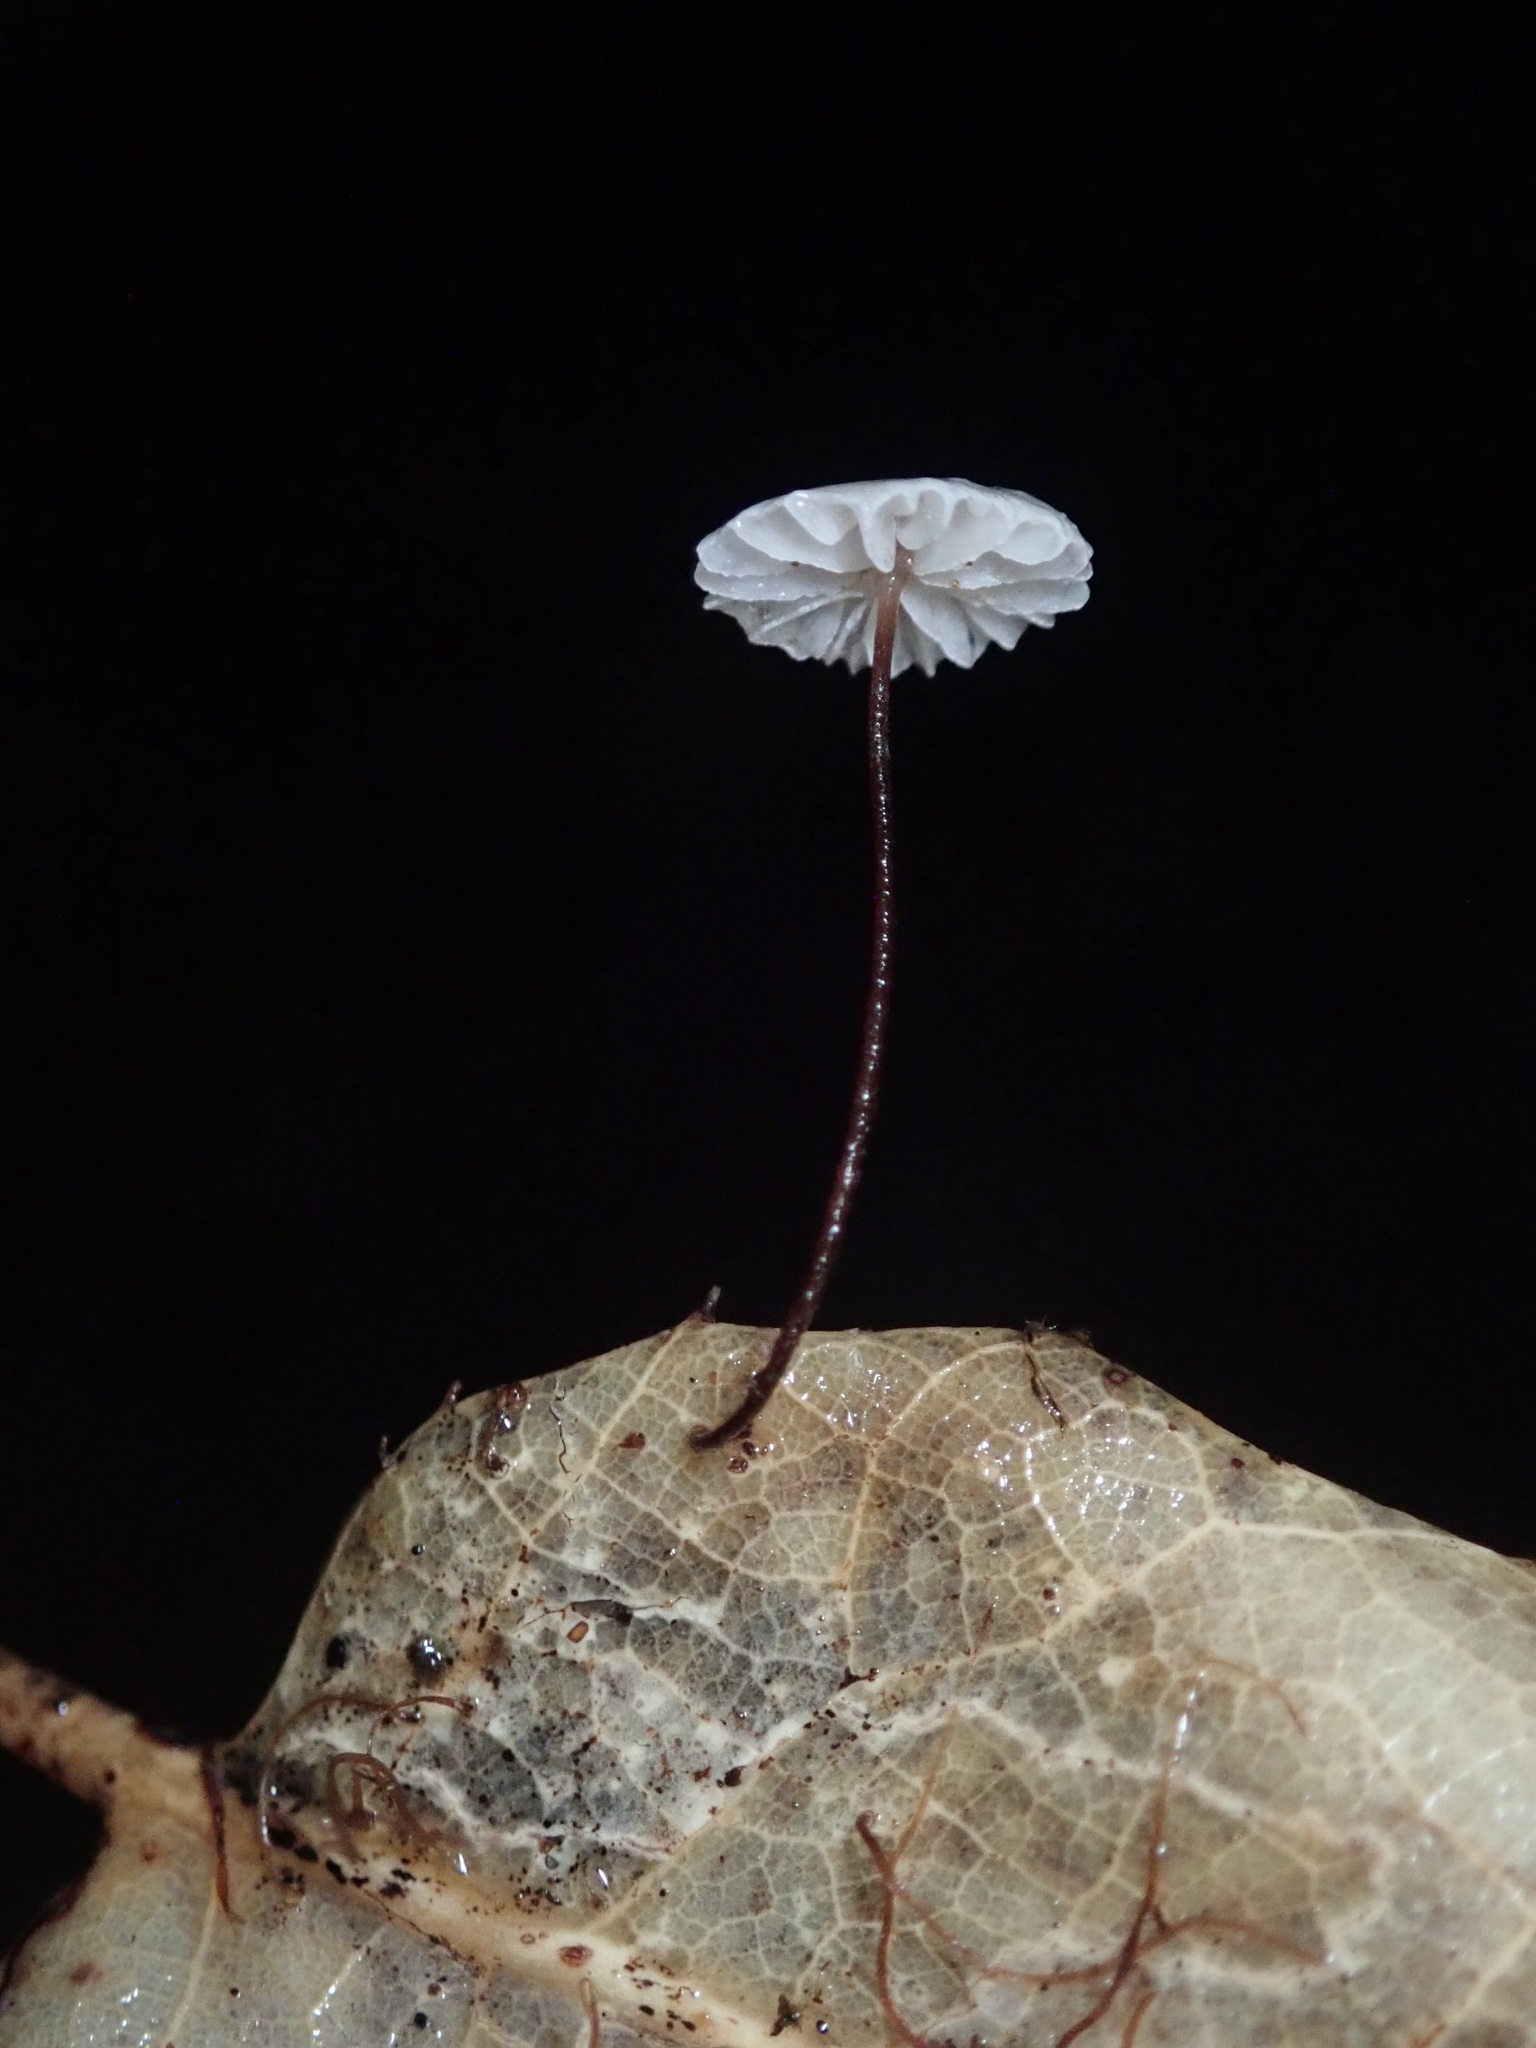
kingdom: Fungi
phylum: Basidiomycota
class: Agaricomycetes
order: Agaricales
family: Omphalotaceae
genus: Collybiopsis
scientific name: Collybiopsis quercophila
